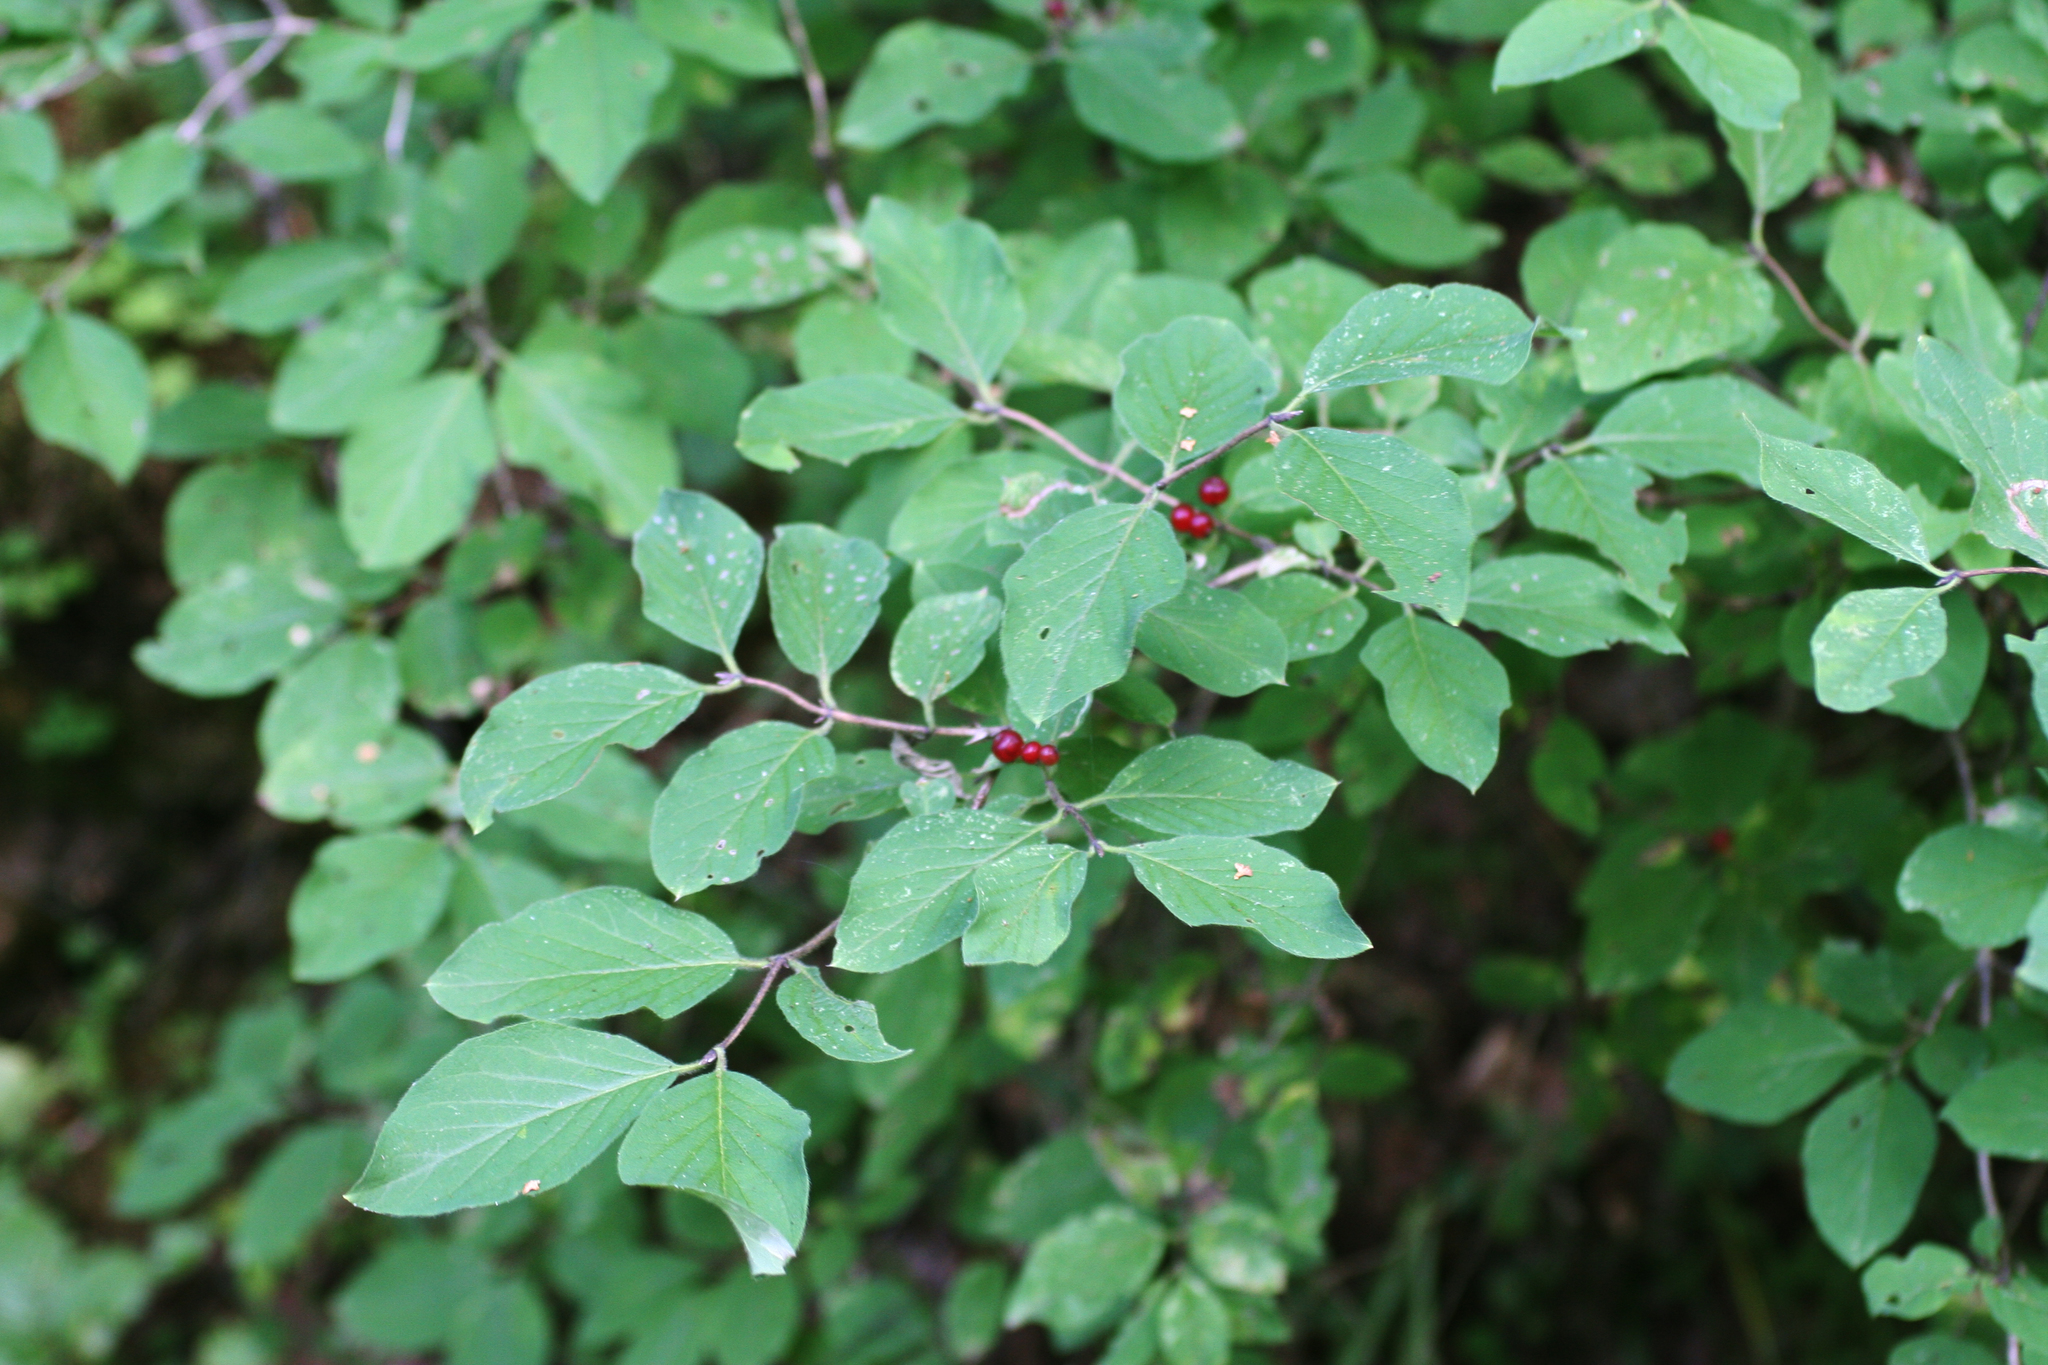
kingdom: Plantae
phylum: Tracheophyta
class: Magnoliopsida
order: Dipsacales
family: Caprifoliaceae
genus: Lonicera
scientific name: Lonicera xylosteum
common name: Fly honeysuckle
